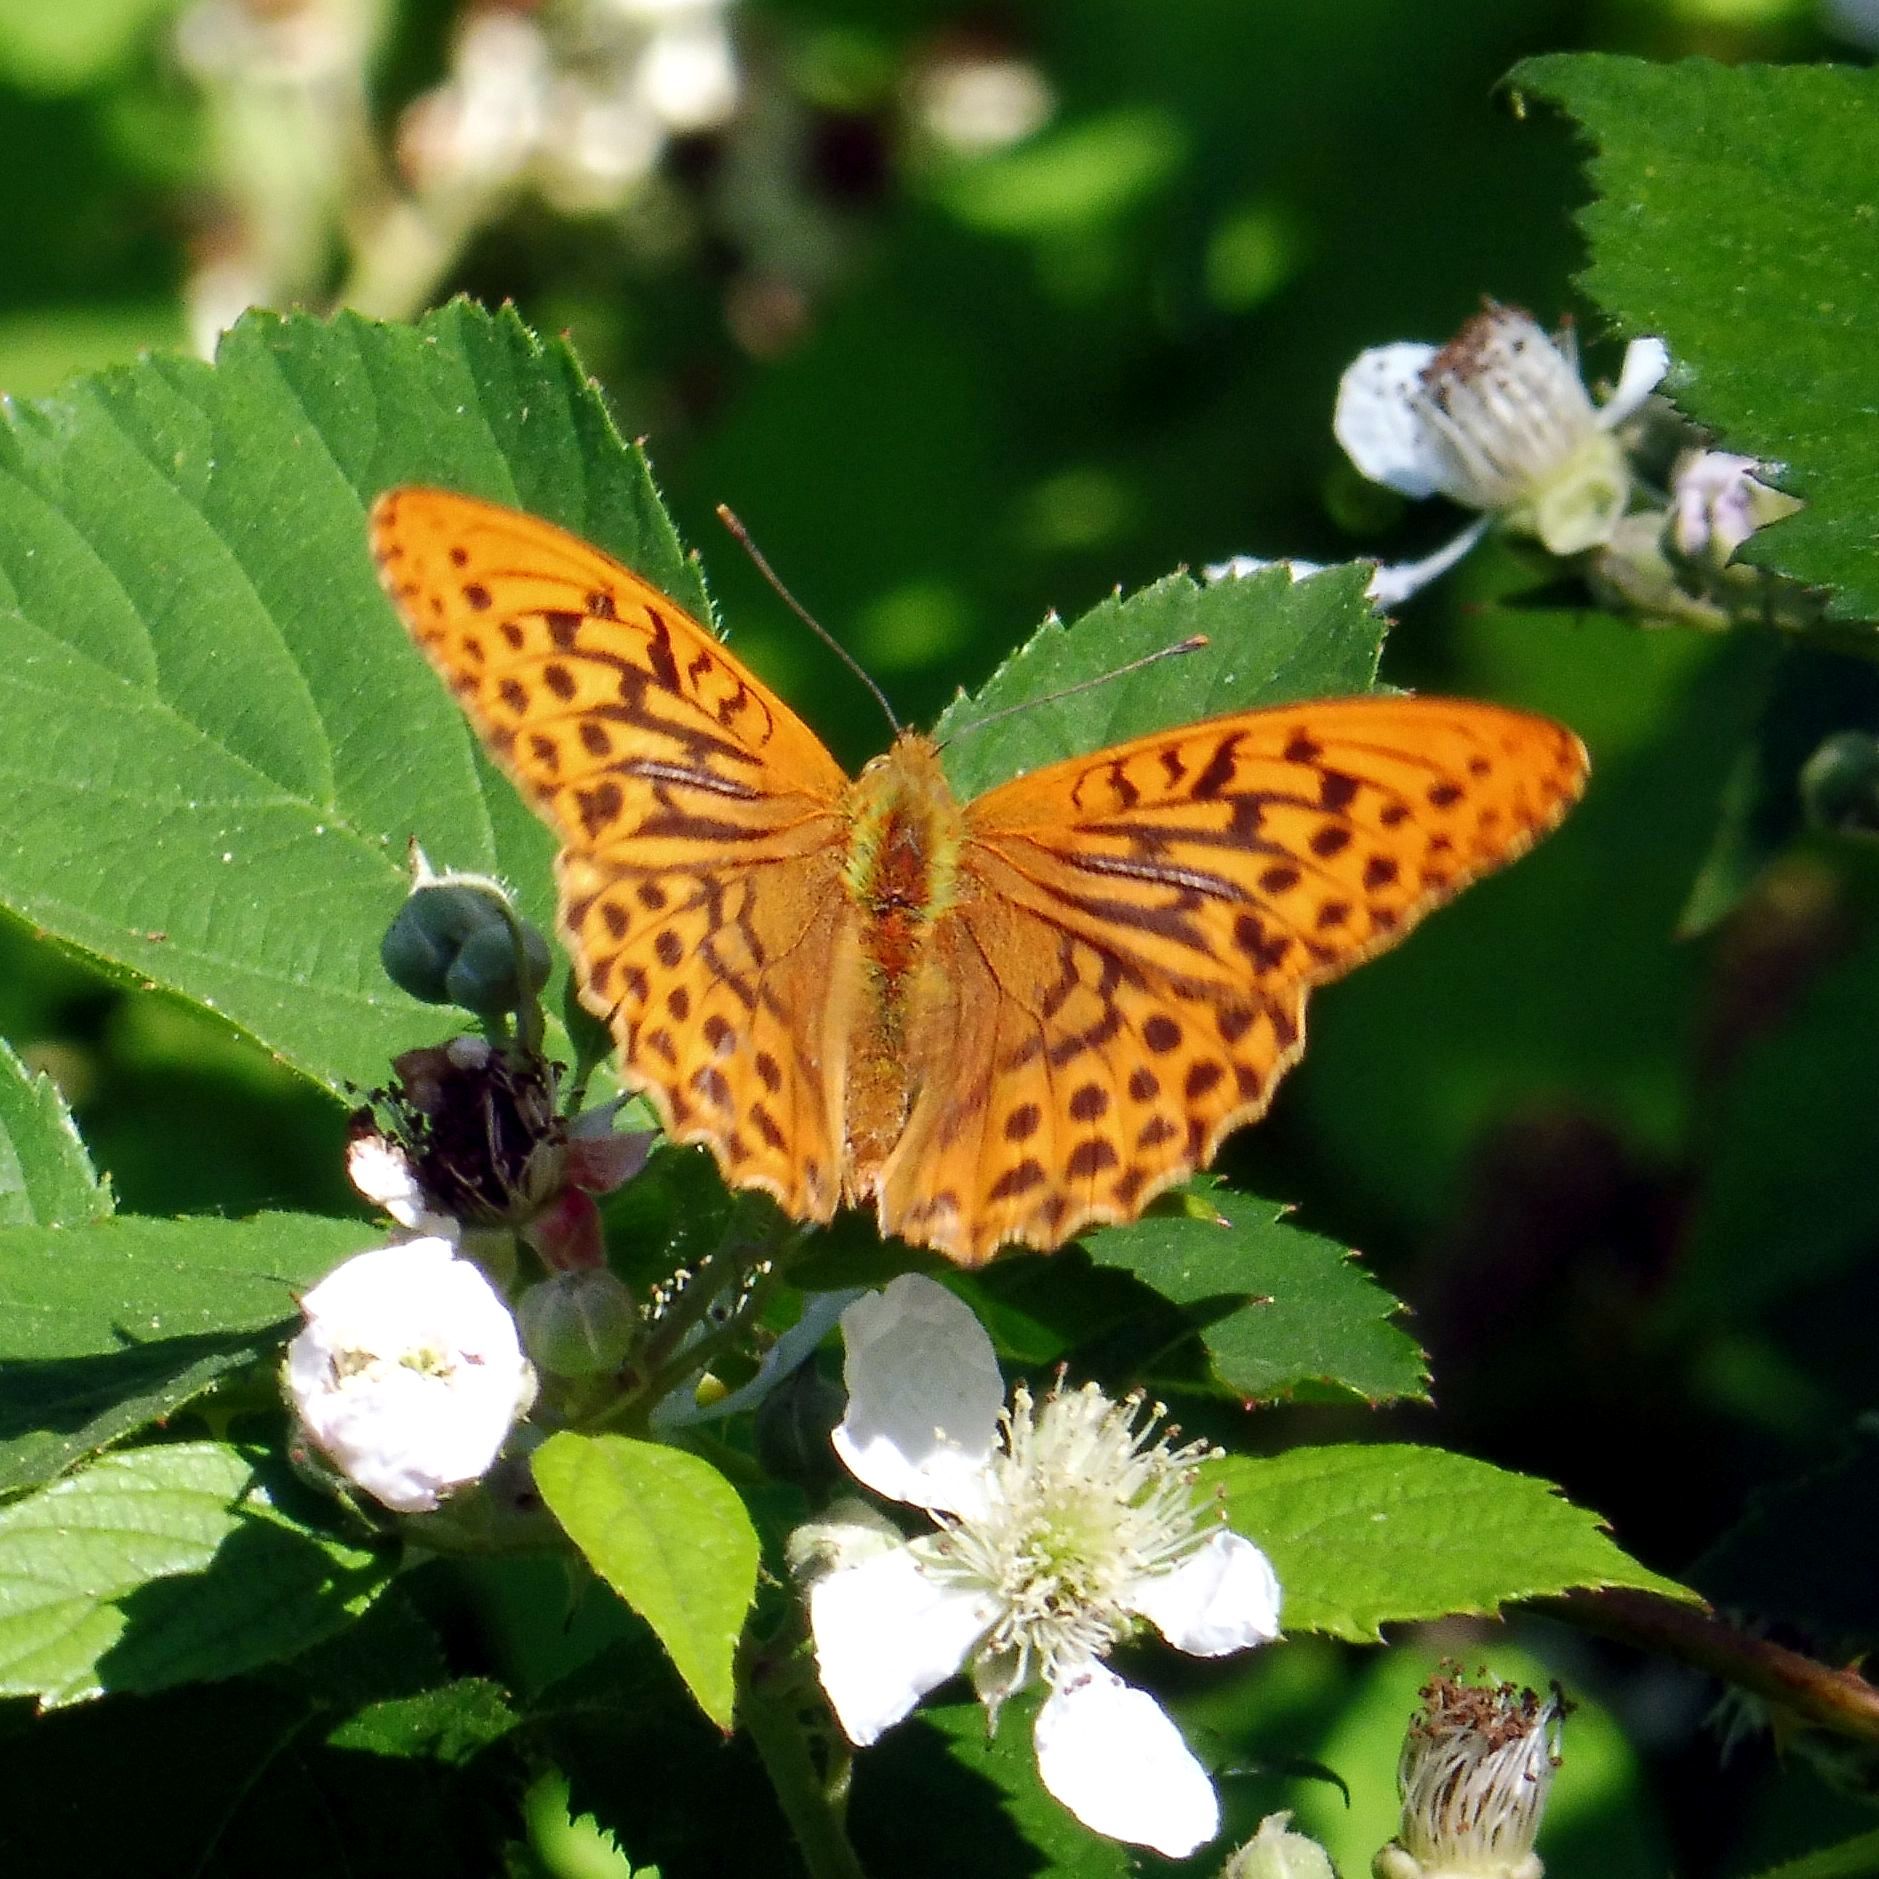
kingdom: Animalia
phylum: Arthropoda
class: Insecta
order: Lepidoptera
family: Nymphalidae
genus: Argynnis
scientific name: Argynnis paphia
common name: Silver-washed fritillary
